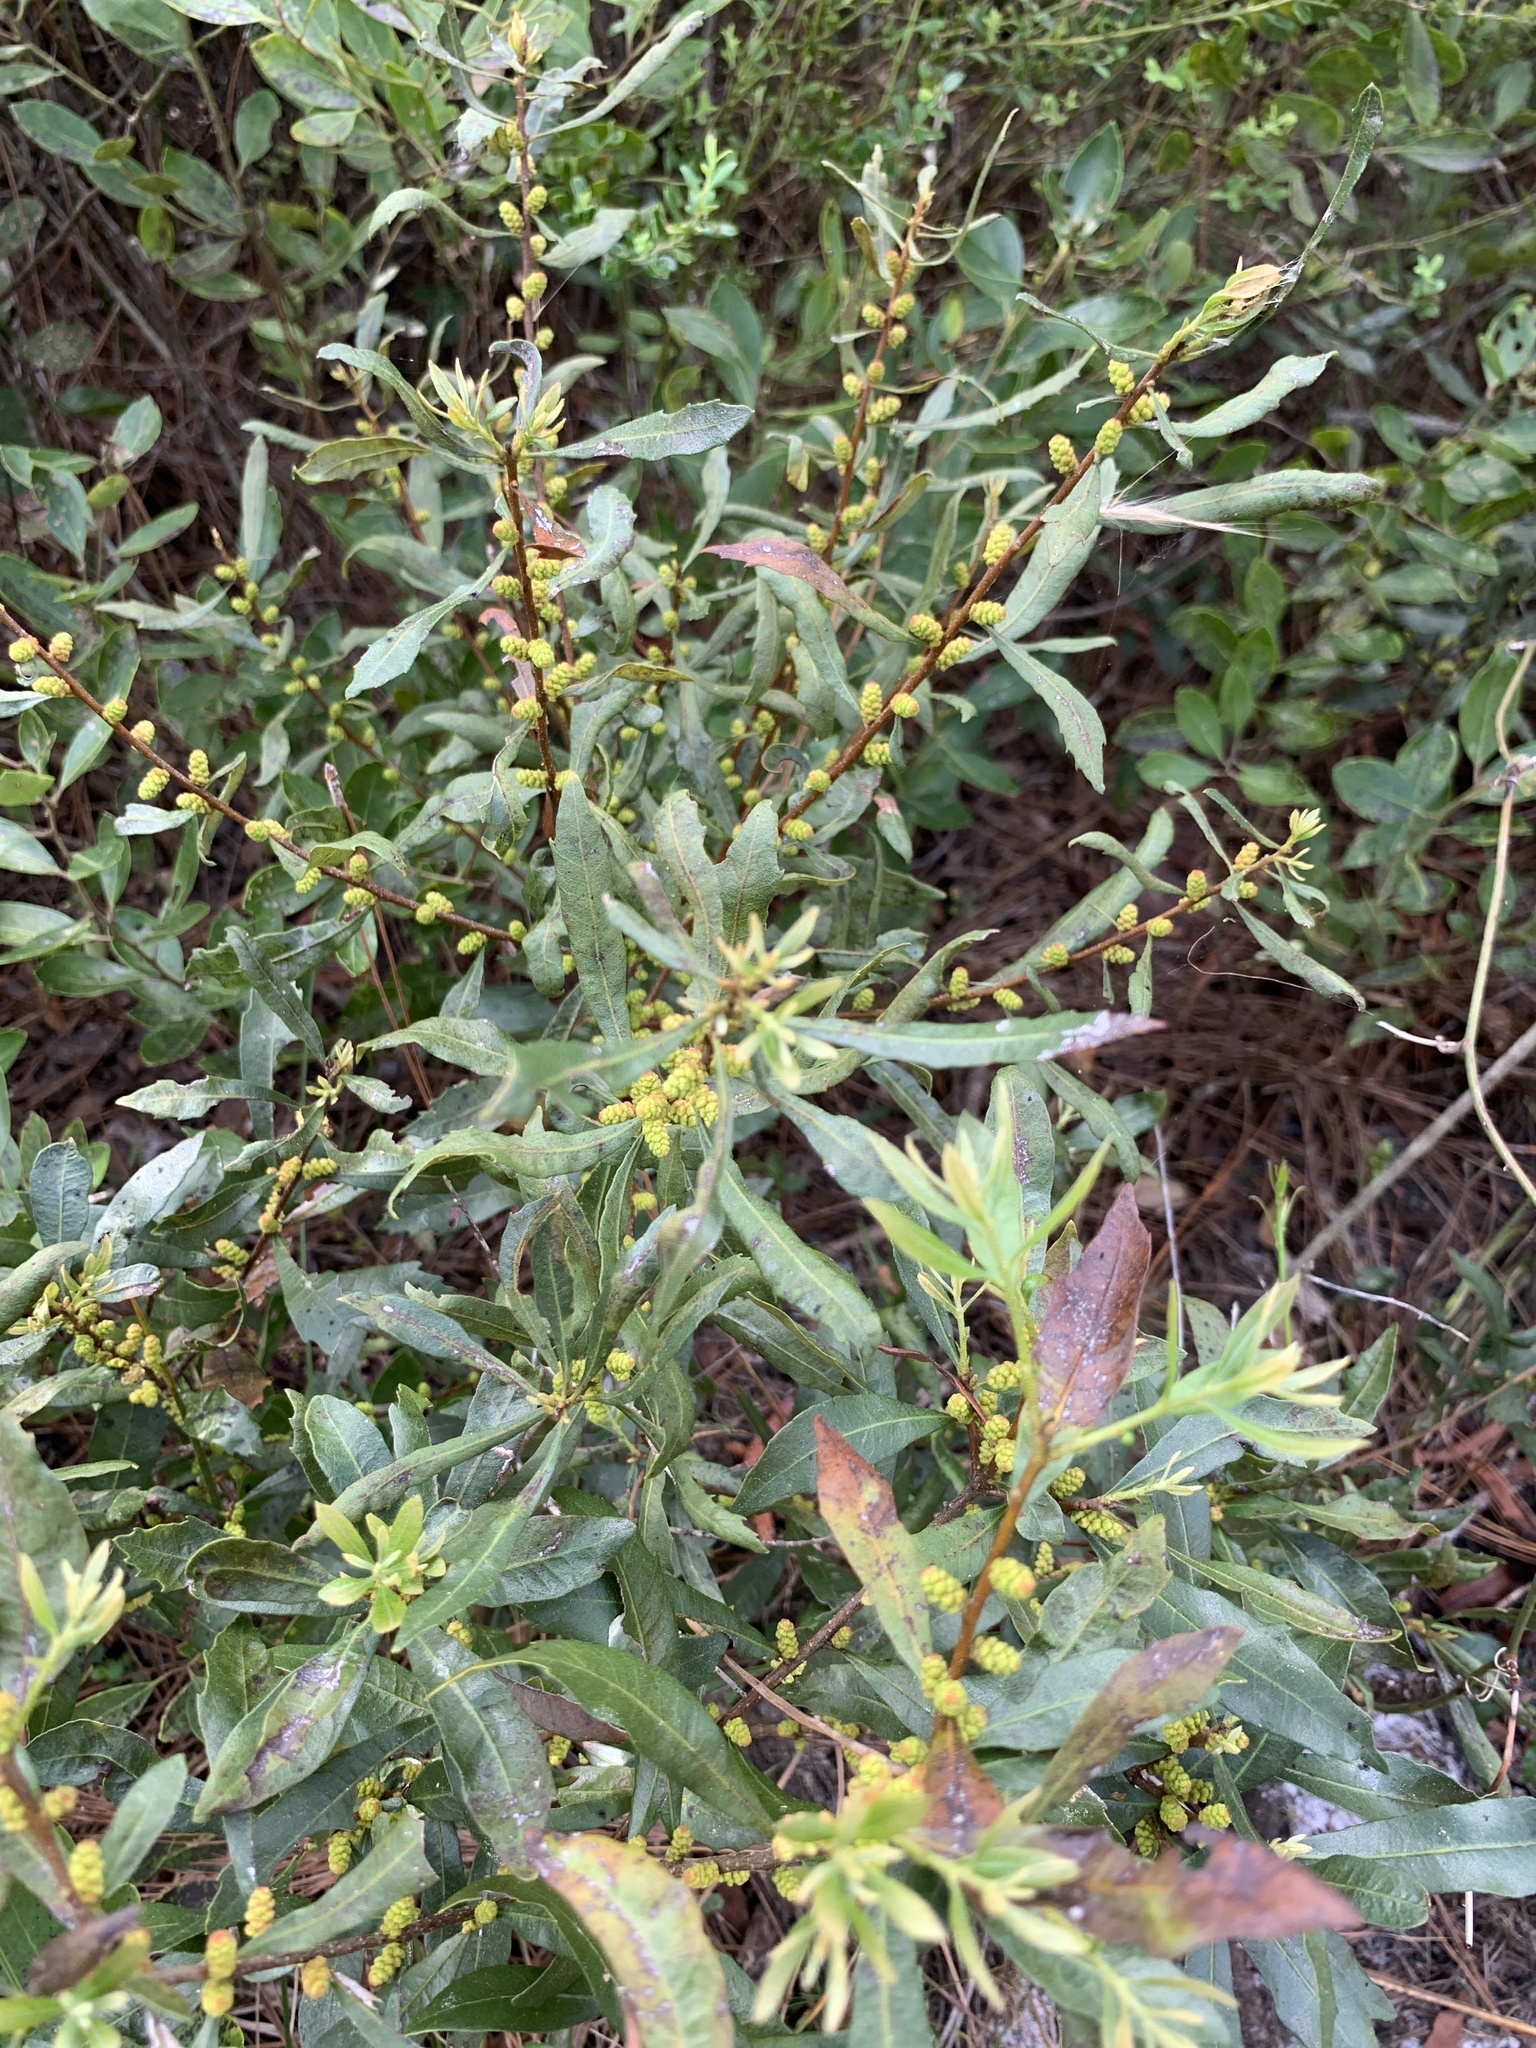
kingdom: Plantae
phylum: Tracheophyta
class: Magnoliopsida
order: Fagales
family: Myricaceae
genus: Morella
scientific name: Morella cerifera
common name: Wax myrtle
